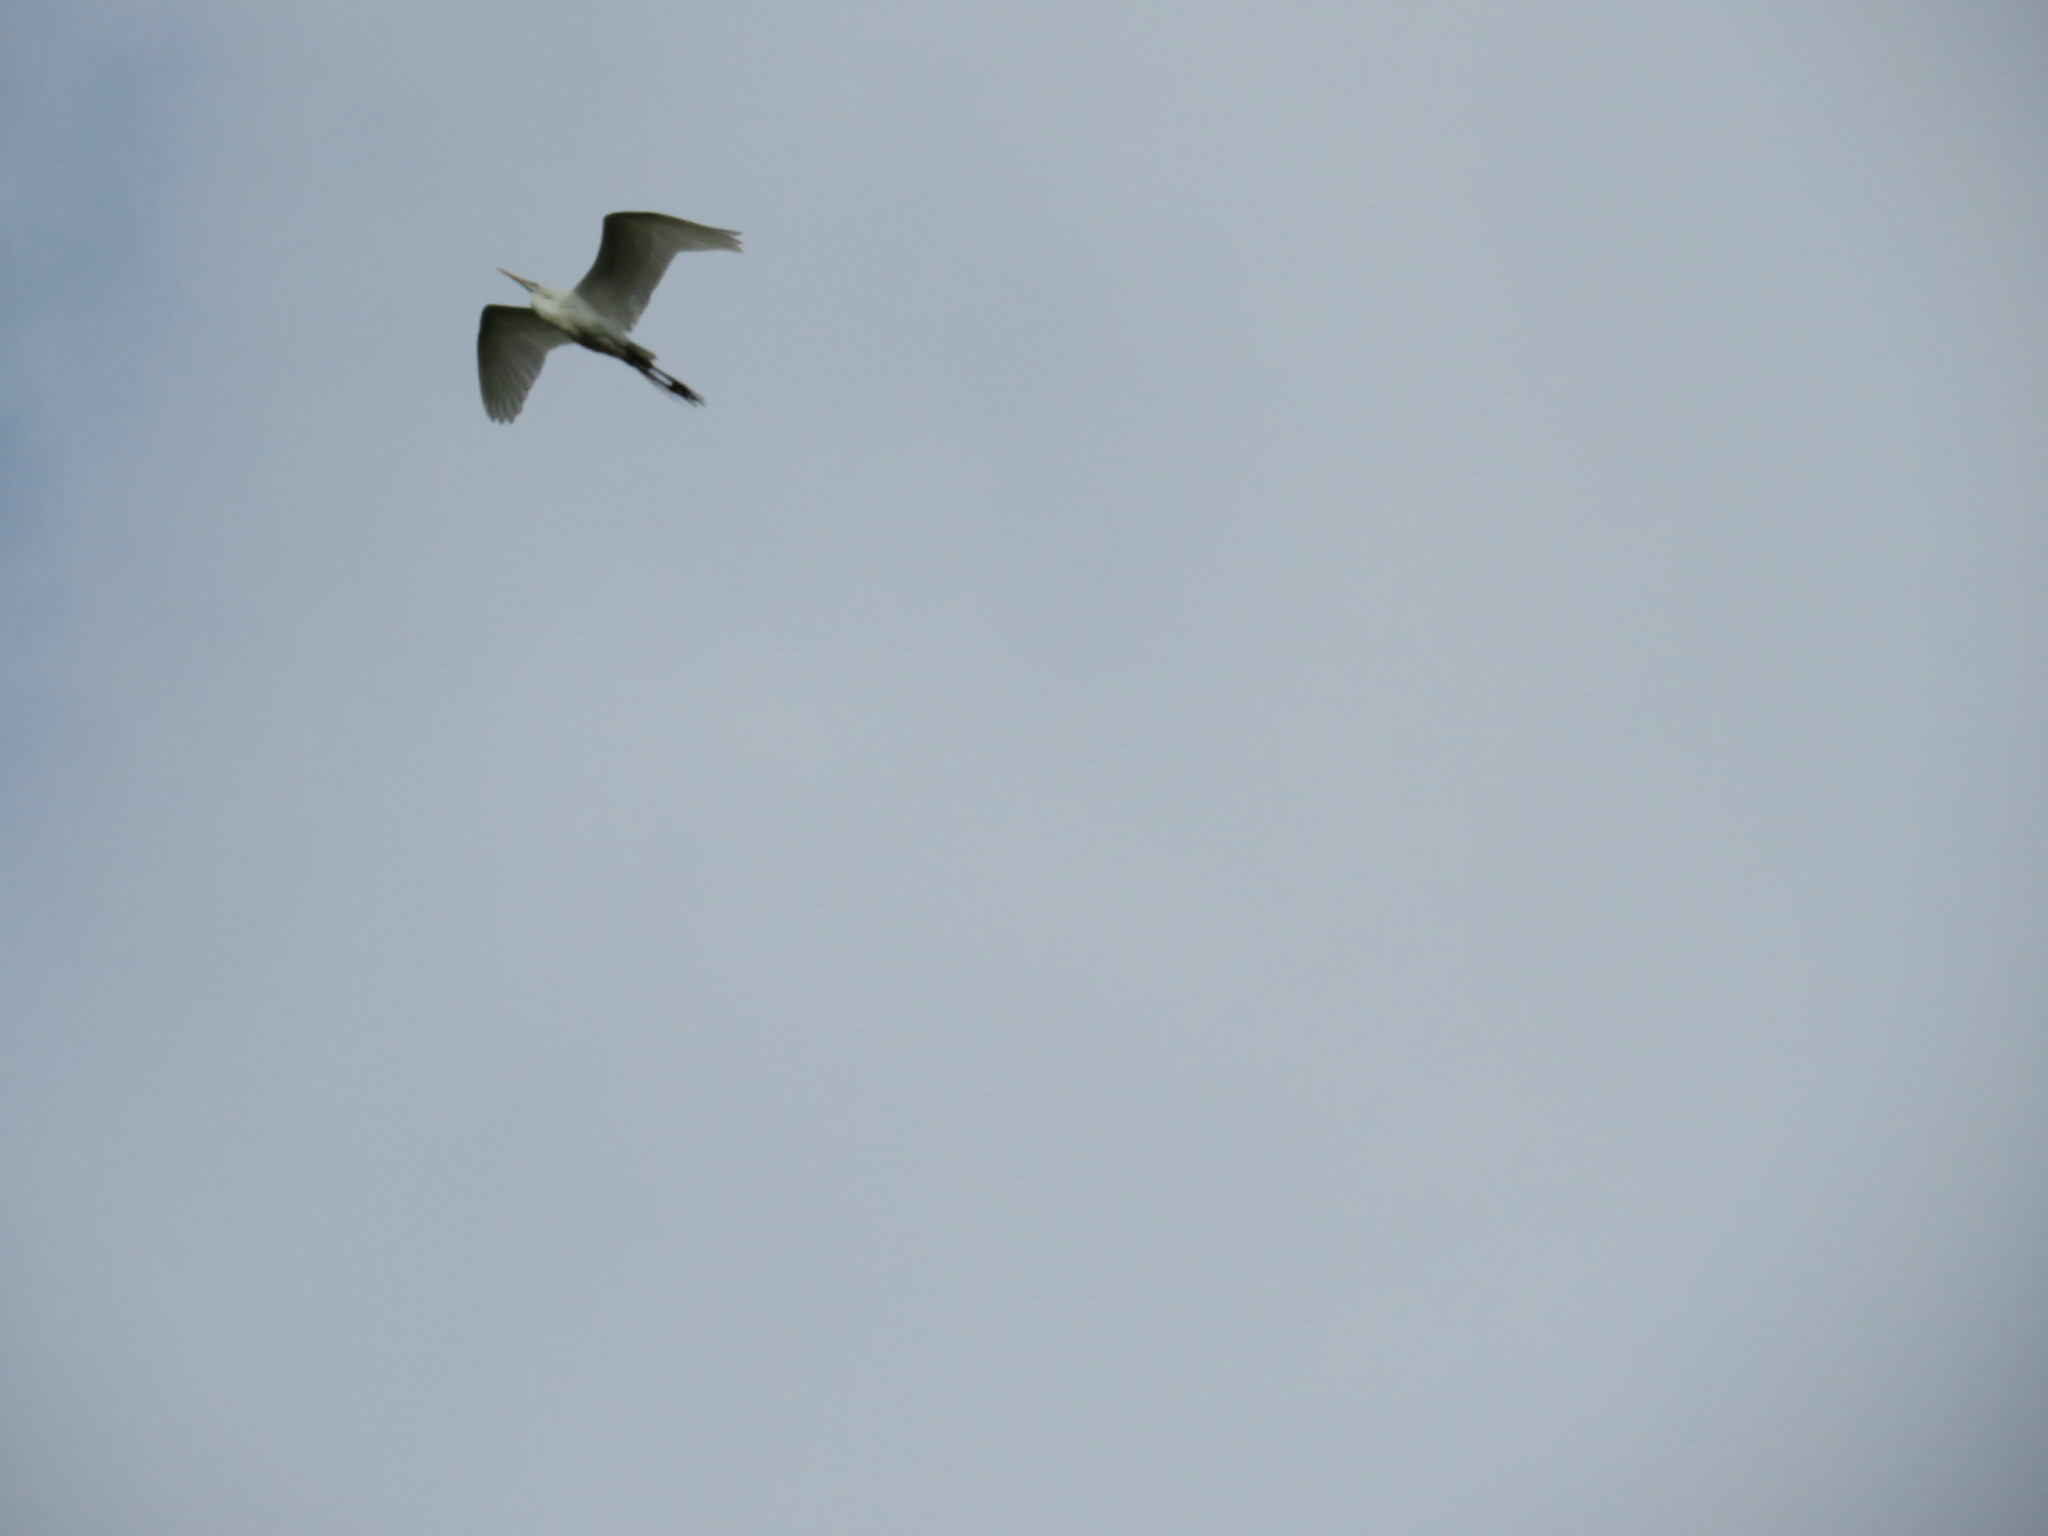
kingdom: Animalia
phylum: Chordata
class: Aves
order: Pelecaniformes
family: Ardeidae
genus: Ardea
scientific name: Ardea alba
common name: Great egret
